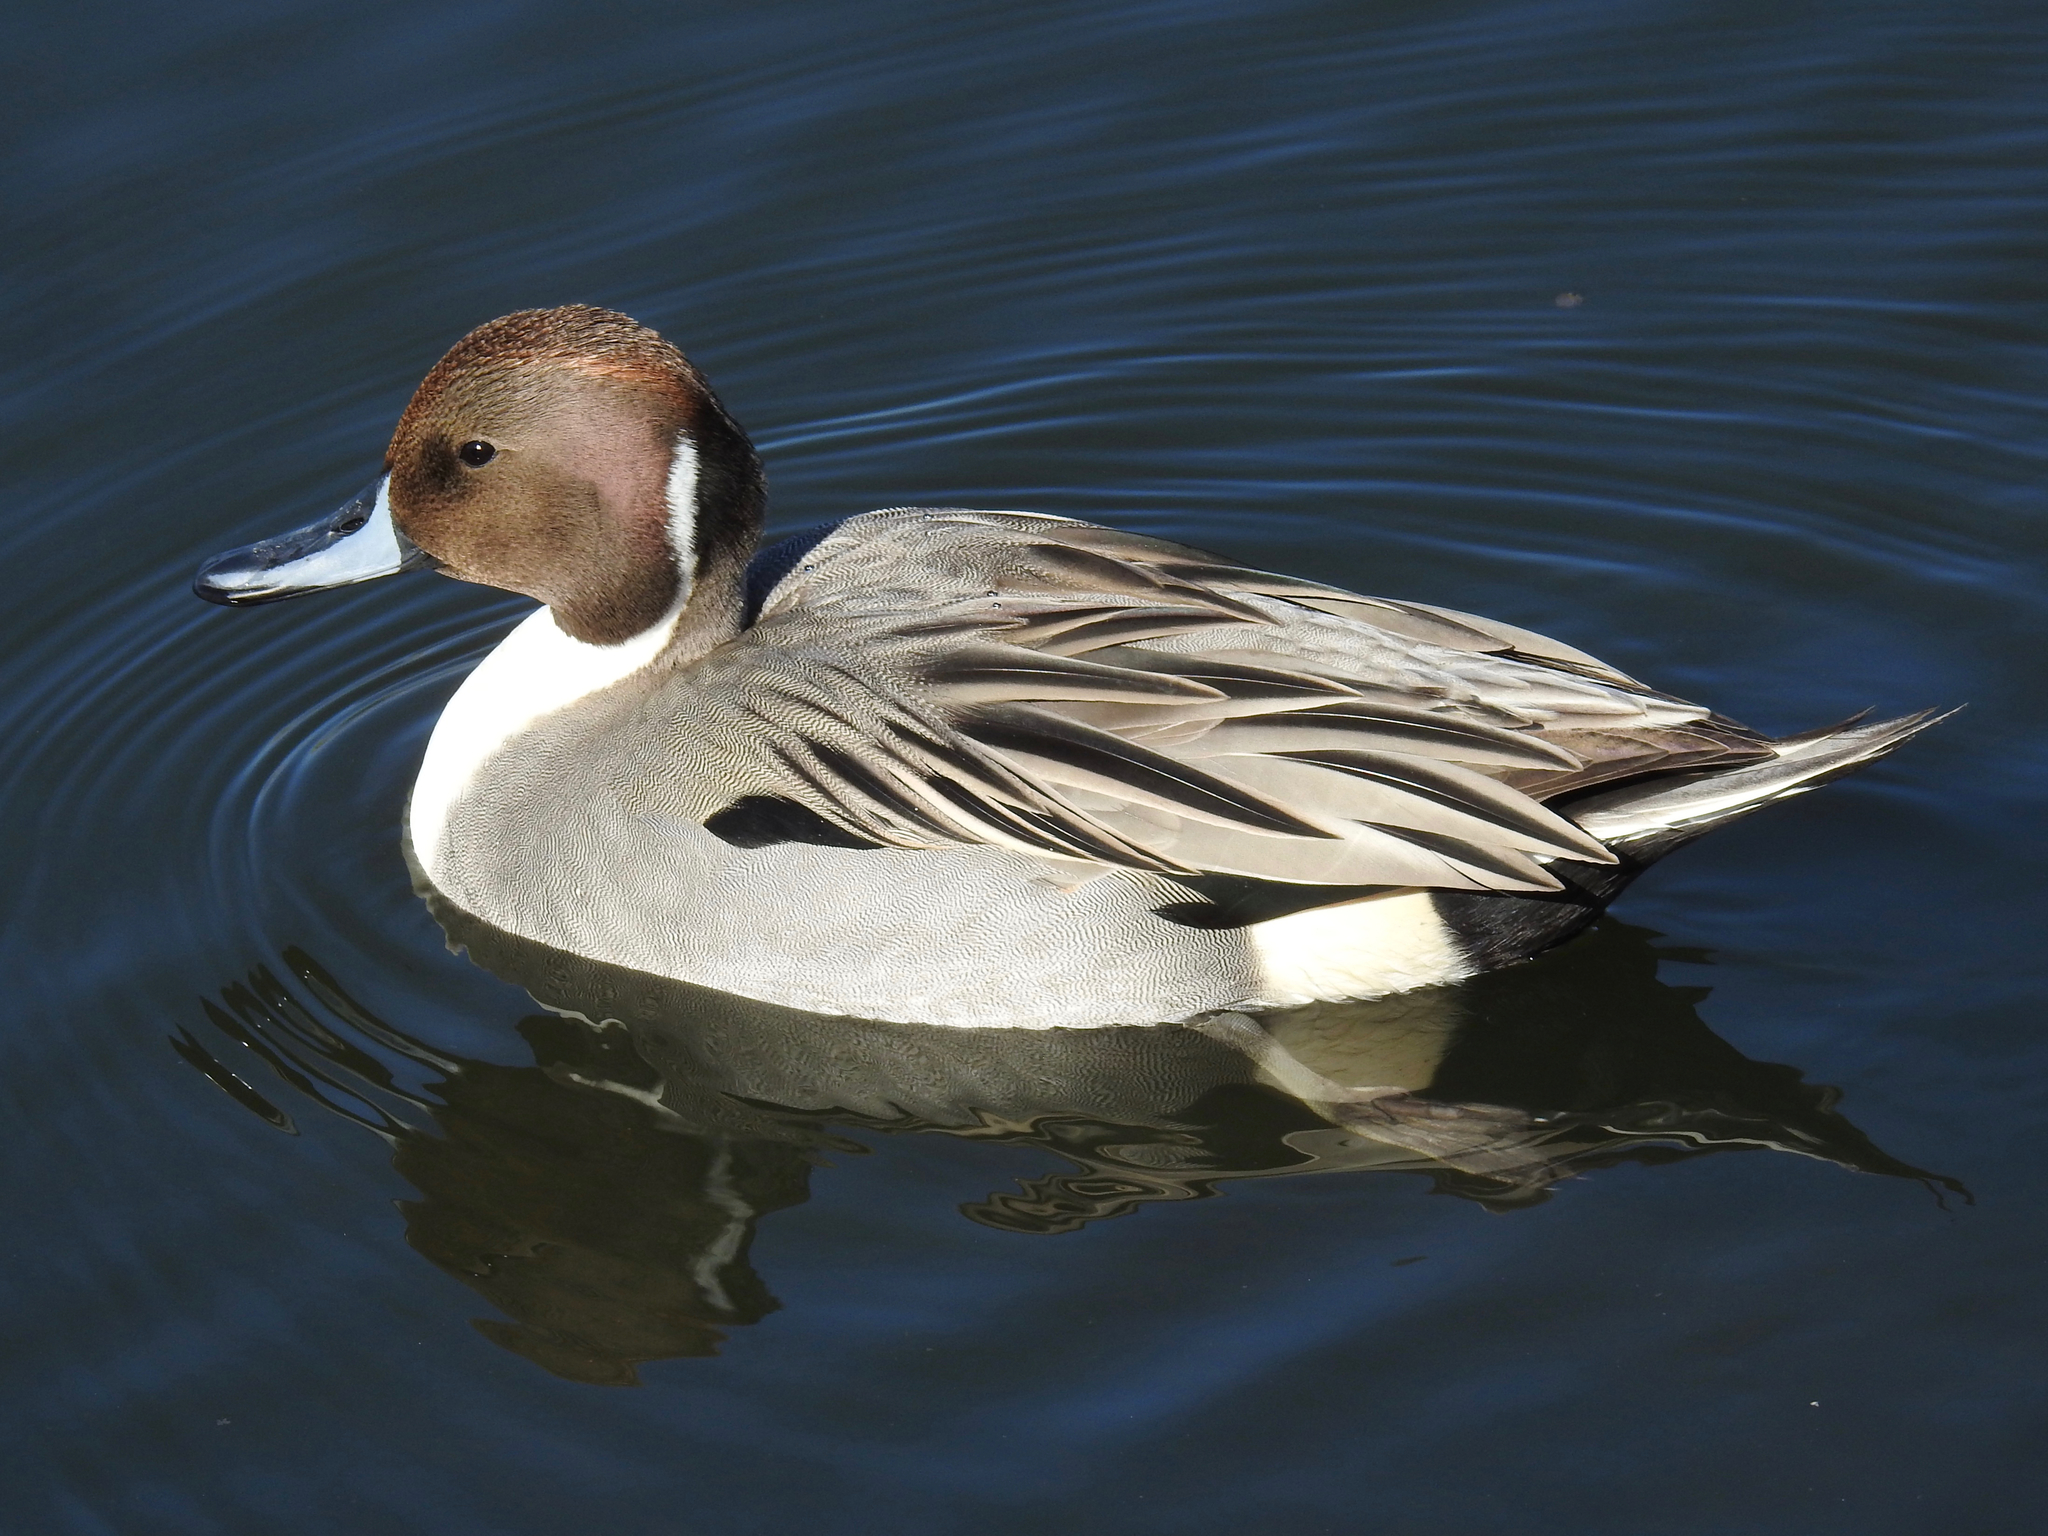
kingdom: Animalia
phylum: Chordata
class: Aves
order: Anseriformes
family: Anatidae
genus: Anas
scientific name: Anas acuta
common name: Northern pintail
